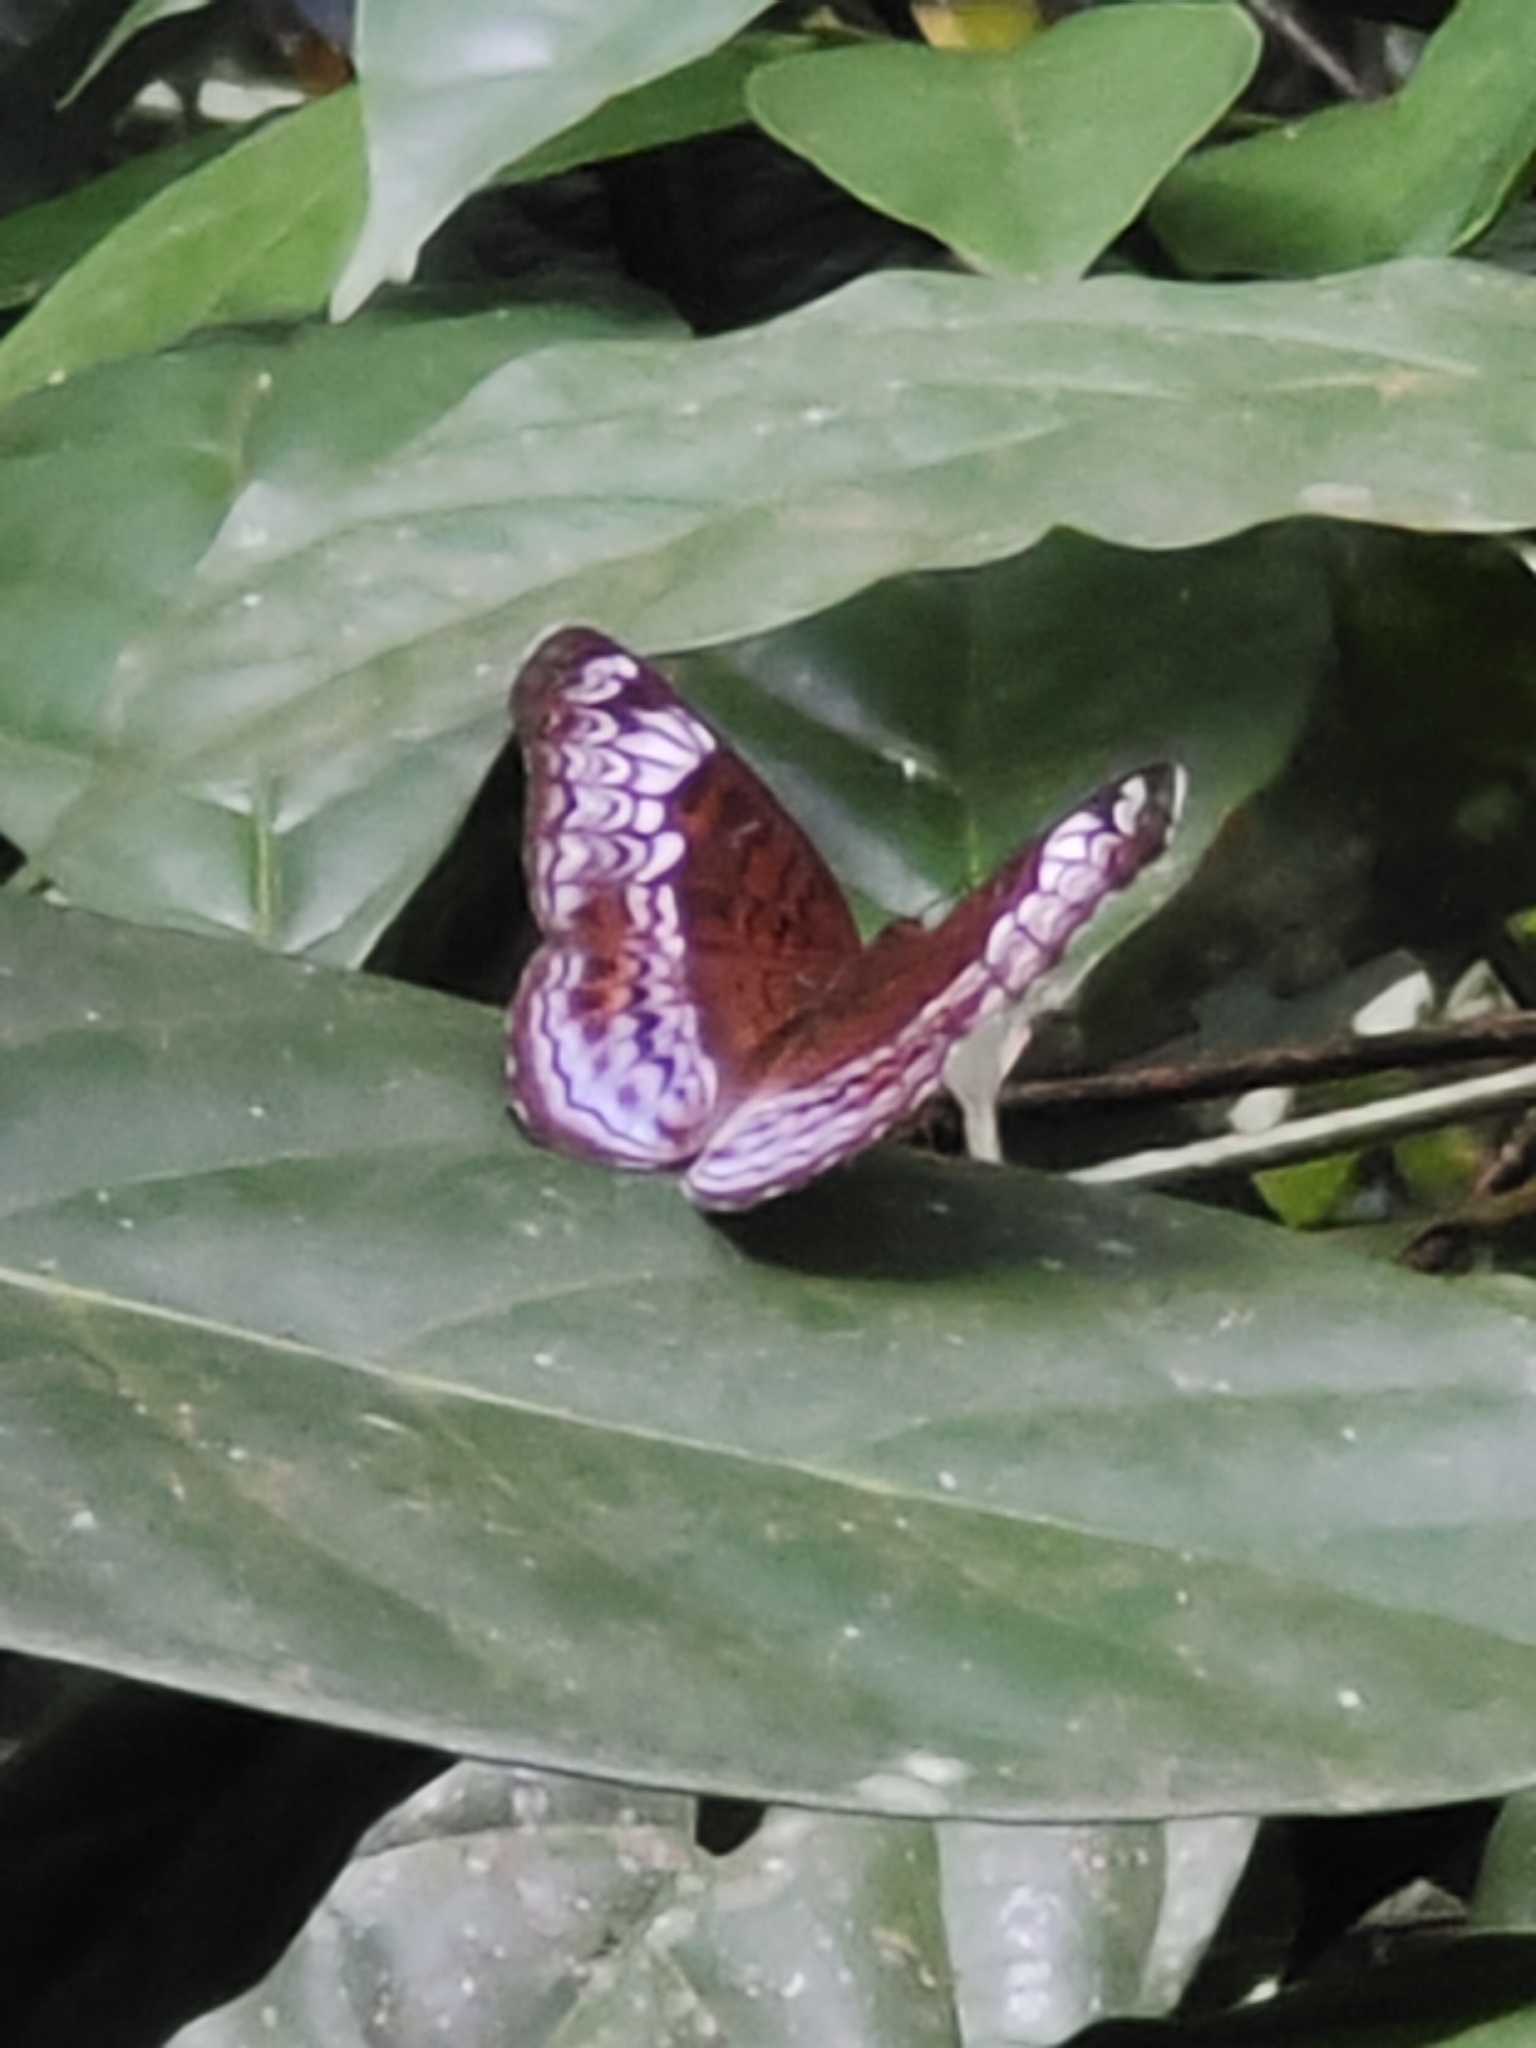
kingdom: Animalia
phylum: Arthropoda
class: Insecta
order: Lepidoptera
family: Nymphalidae
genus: Lebadea
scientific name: Lebadea martha
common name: Knight
